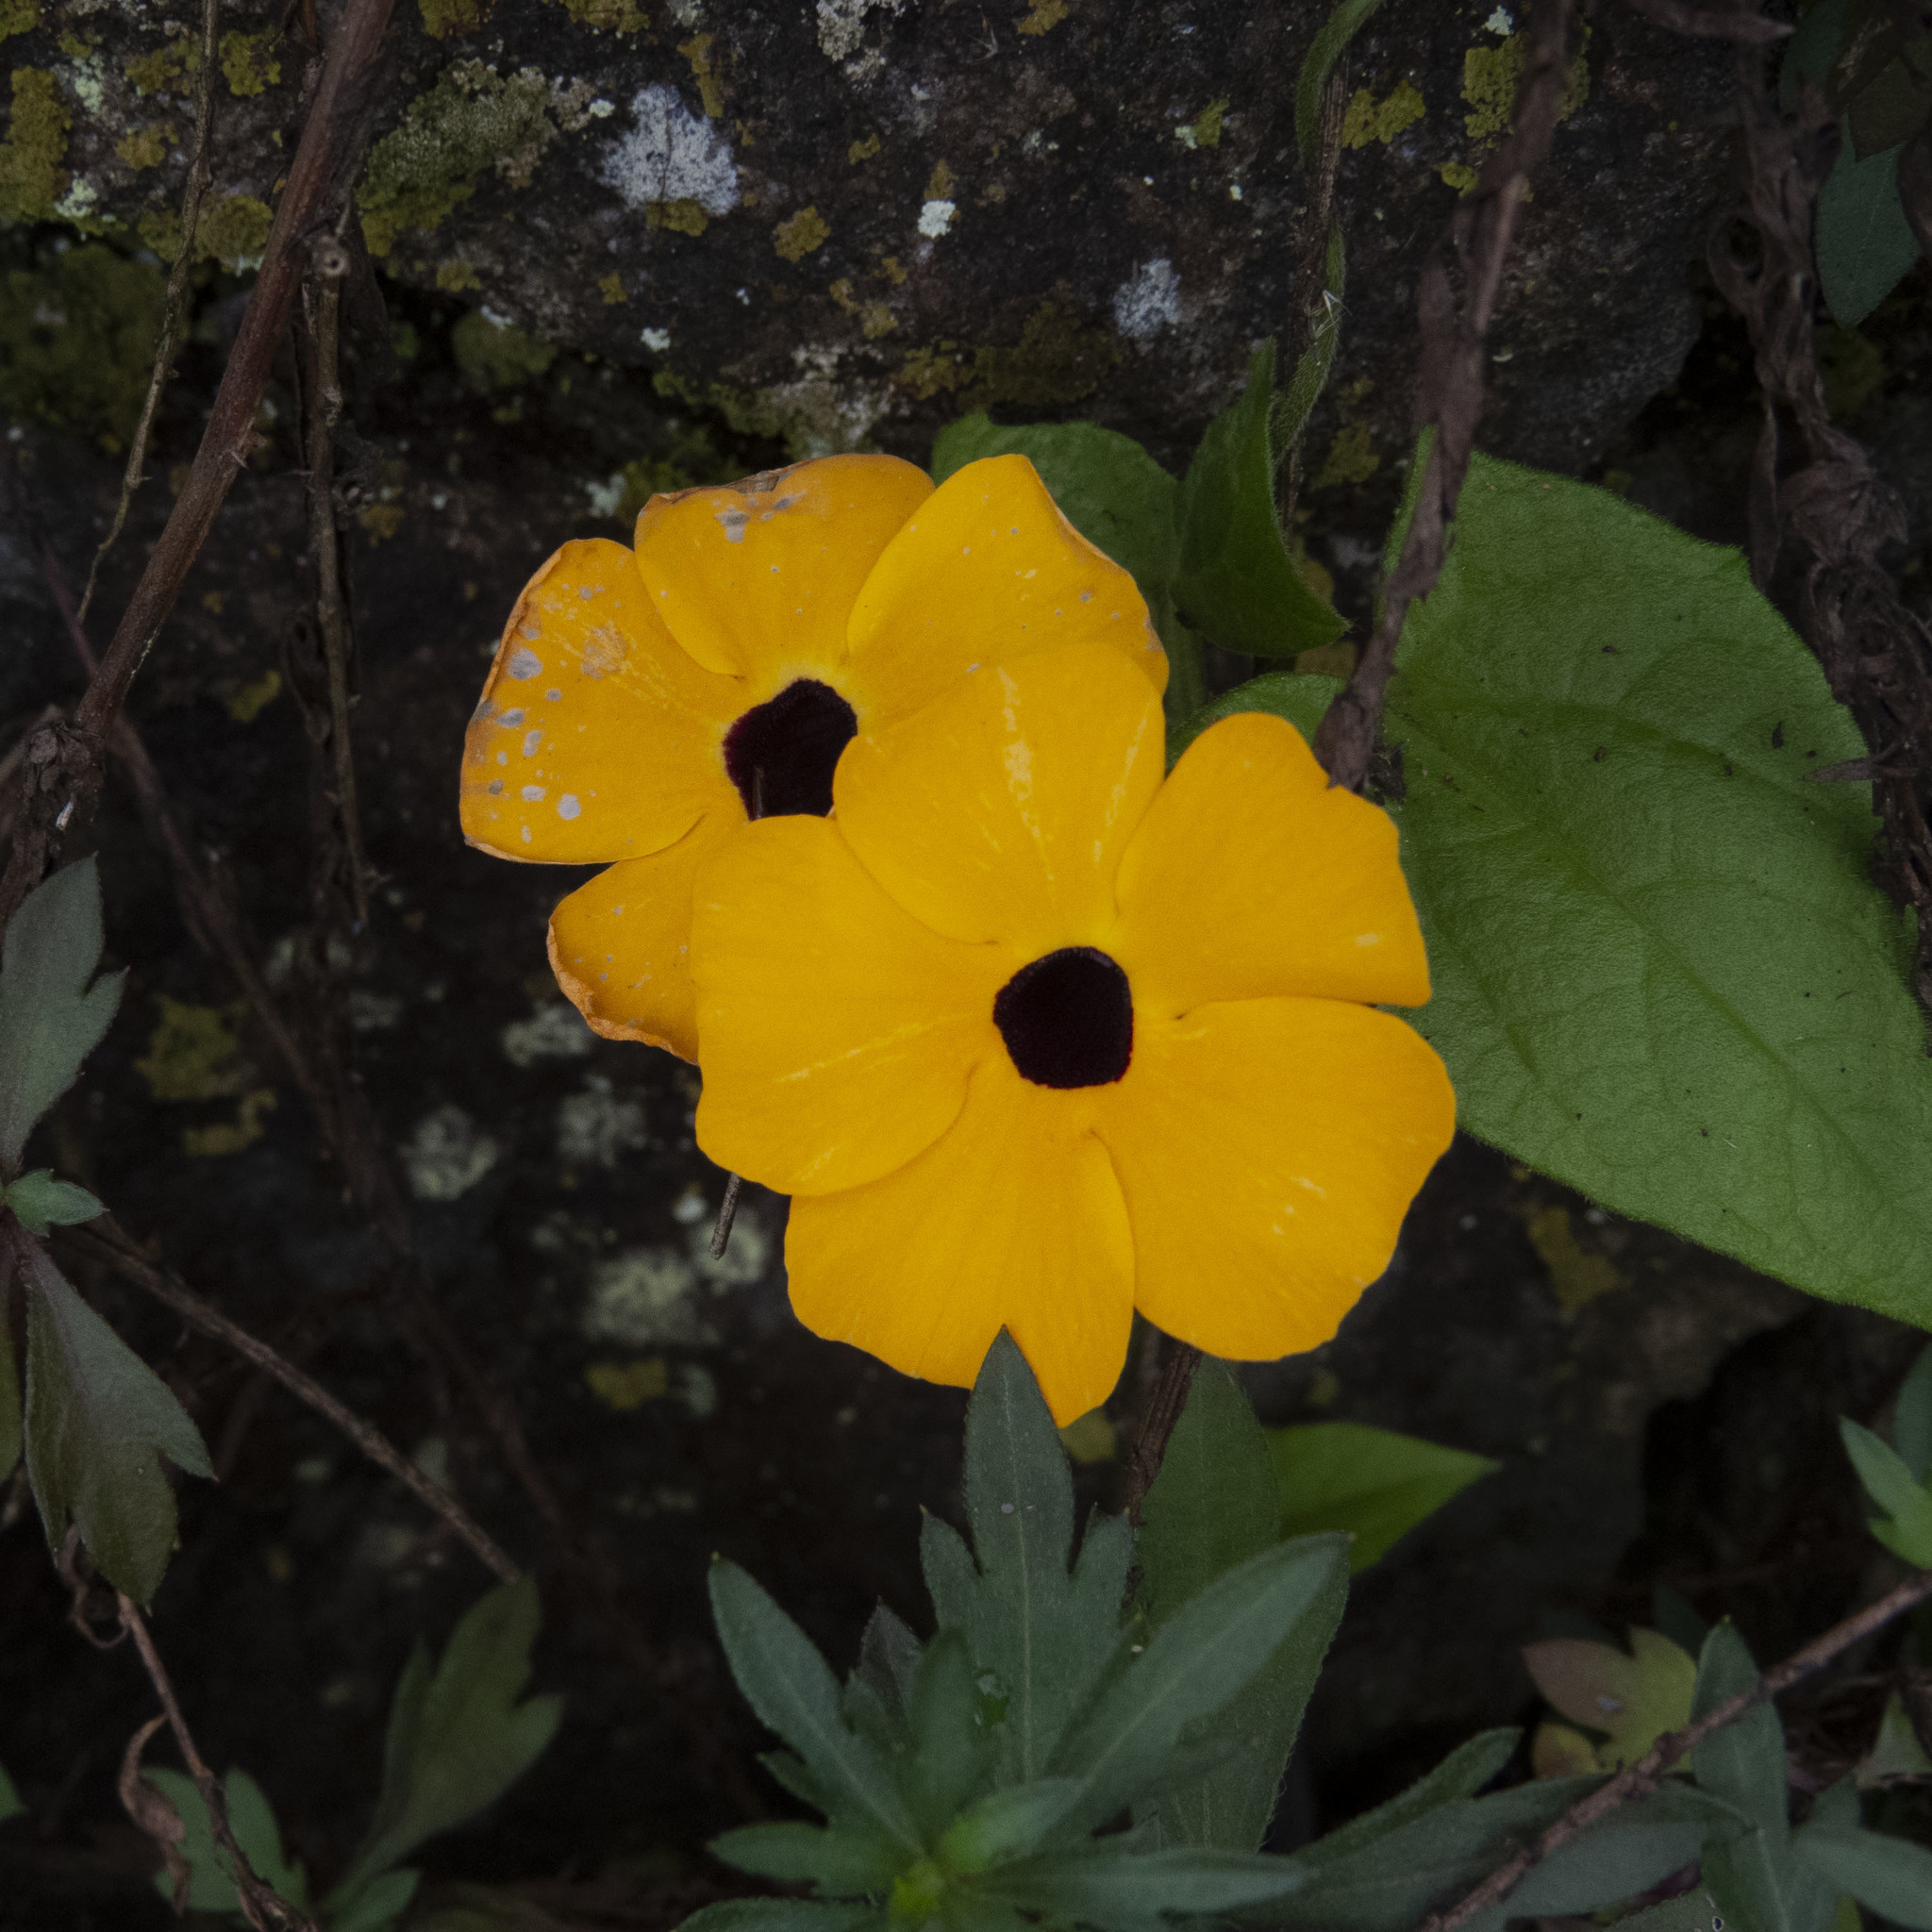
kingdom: Plantae
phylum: Tracheophyta
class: Magnoliopsida
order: Lamiales
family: Acanthaceae
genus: Thunbergia
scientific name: Thunbergia alata
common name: Blackeyed susan vine
